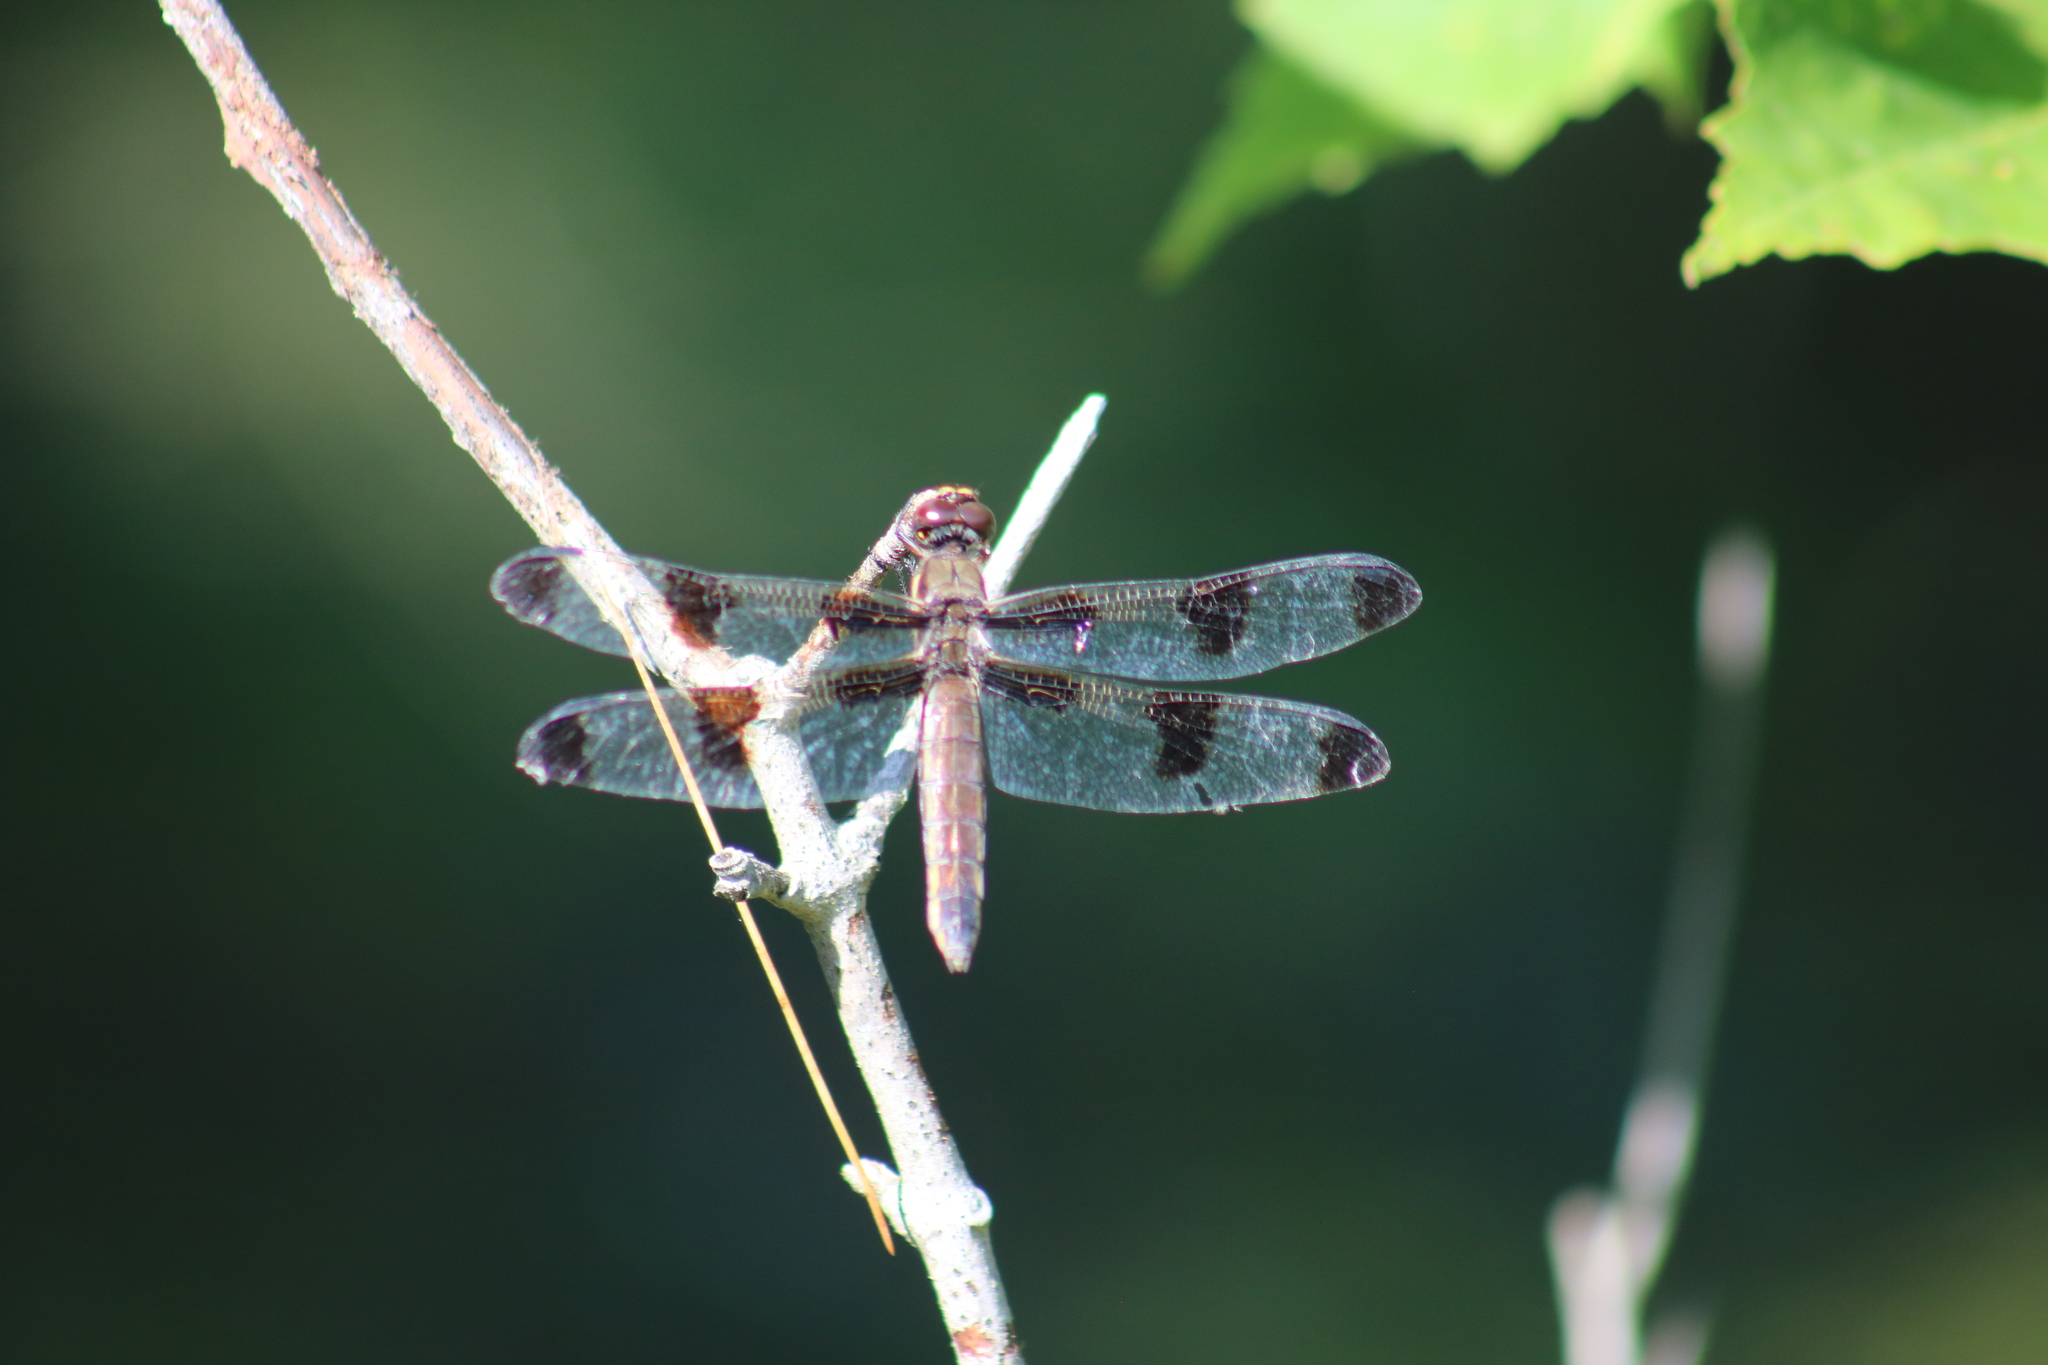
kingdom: Animalia
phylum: Arthropoda
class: Insecta
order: Odonata
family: Libellulidae
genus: Libellula
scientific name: Libellula pulchella
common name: Twelve-spotted skimmer
